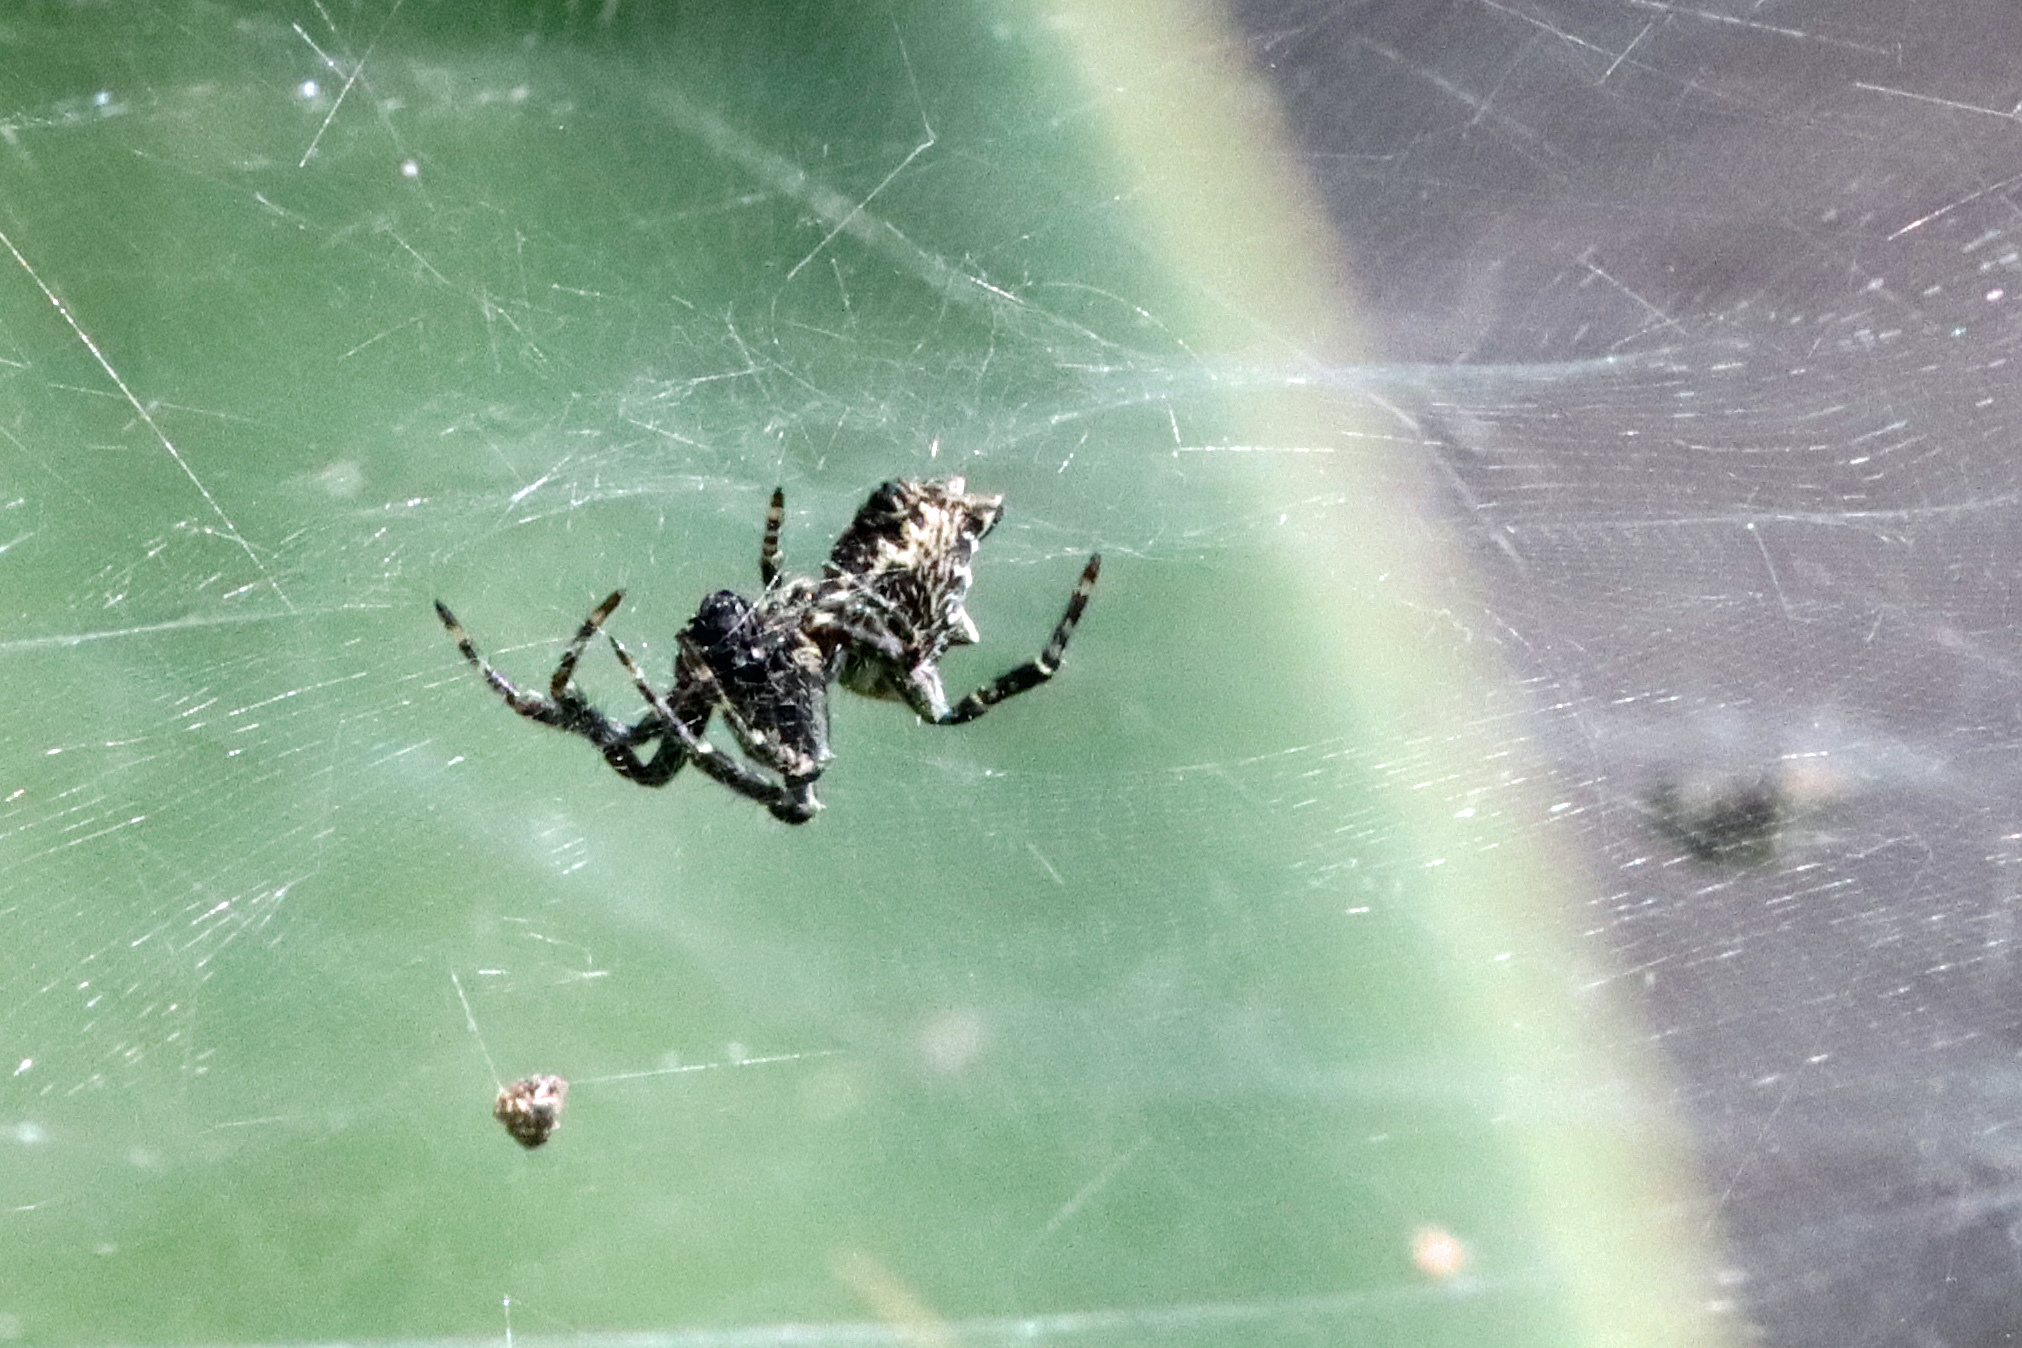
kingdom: Animalia
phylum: Arthropoda
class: Arachnida
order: Araneae
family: Araneidae
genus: Cyrtophora
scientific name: Cyrtophora citricola
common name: Orb weavers
